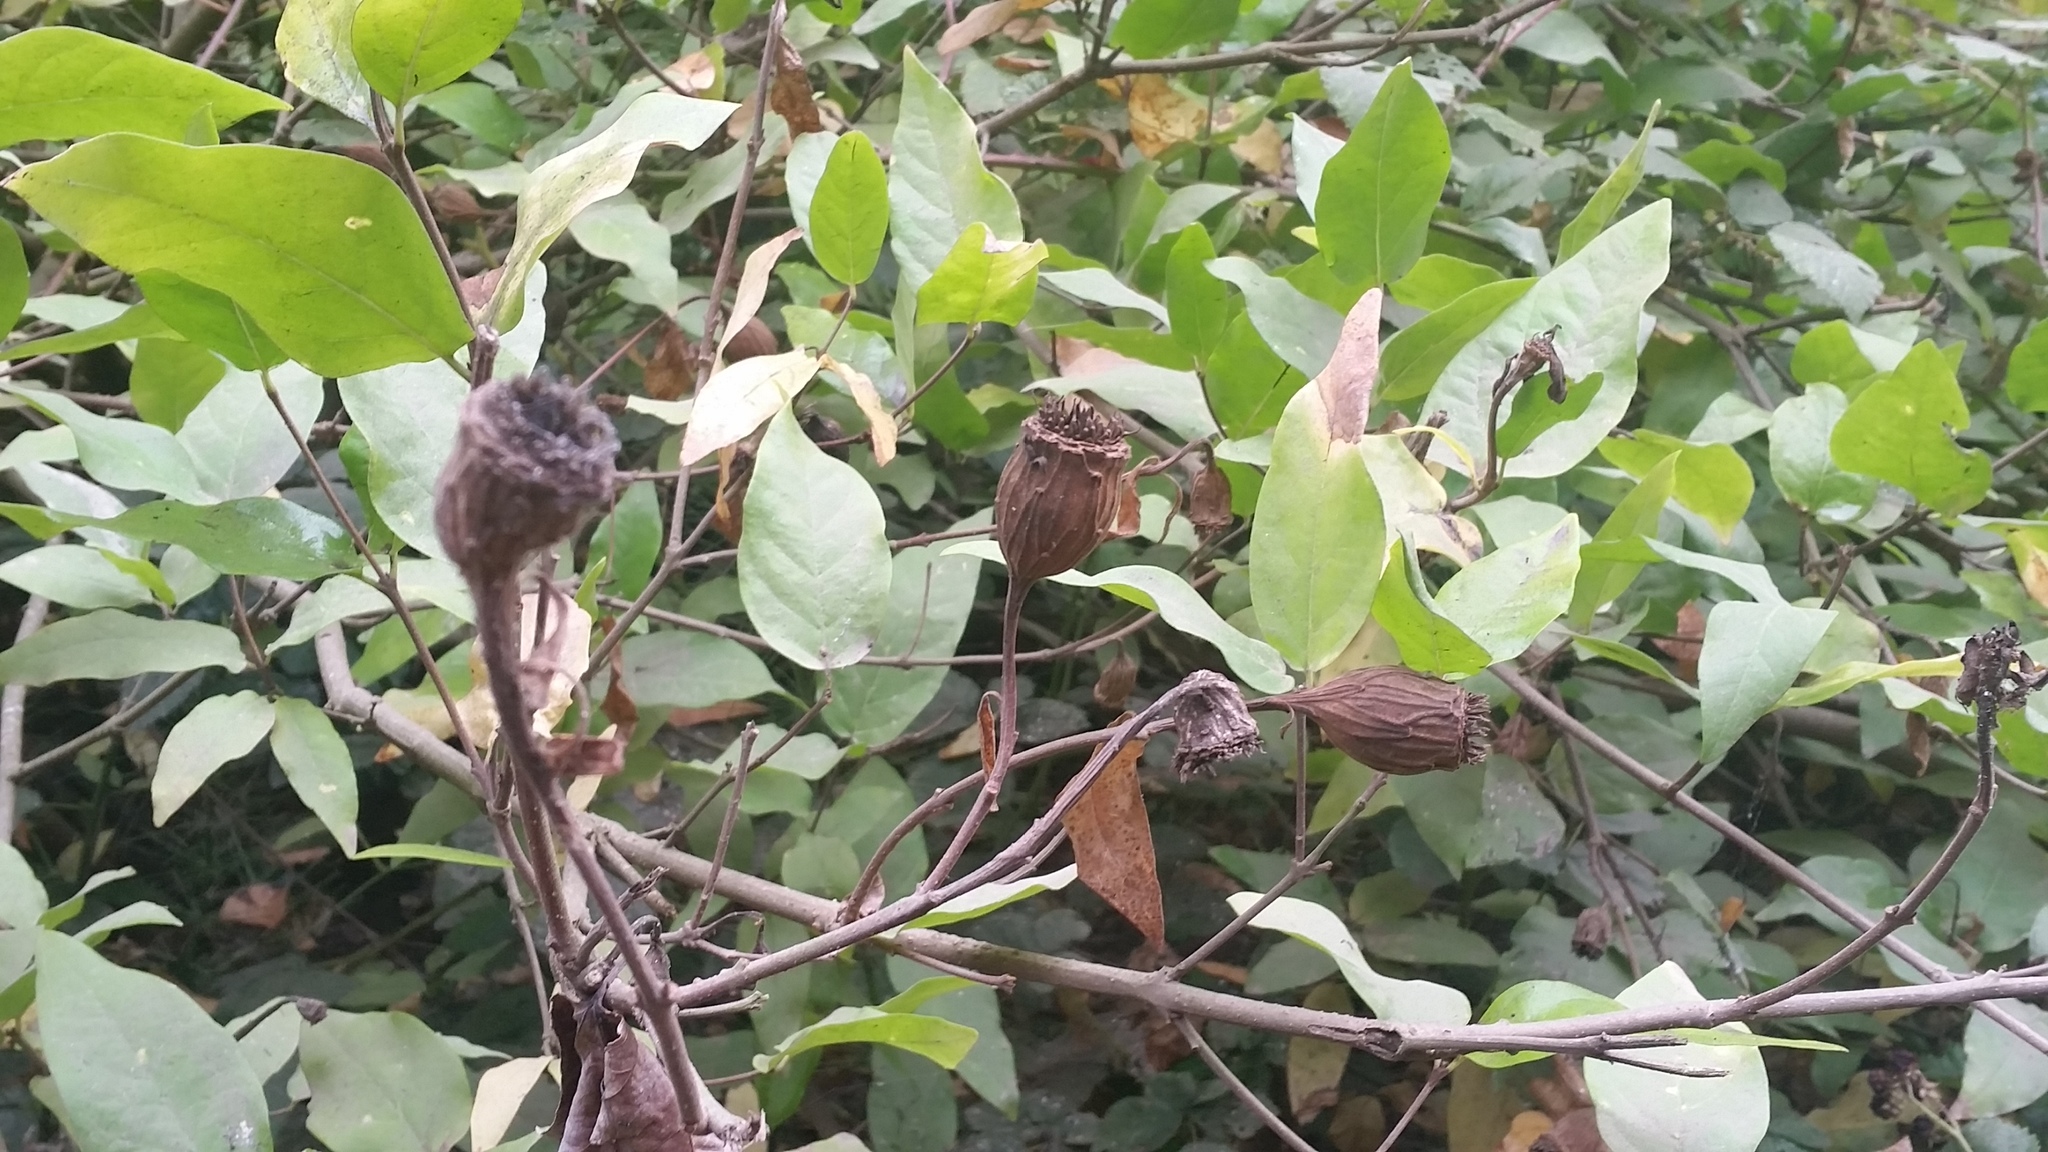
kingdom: Plantae
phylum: Tracheophyta
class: Magnoliopsida
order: Laurales
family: Calycanthaceae
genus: Calycanthus
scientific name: Calycanthus occidentalis
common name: California spicebush
